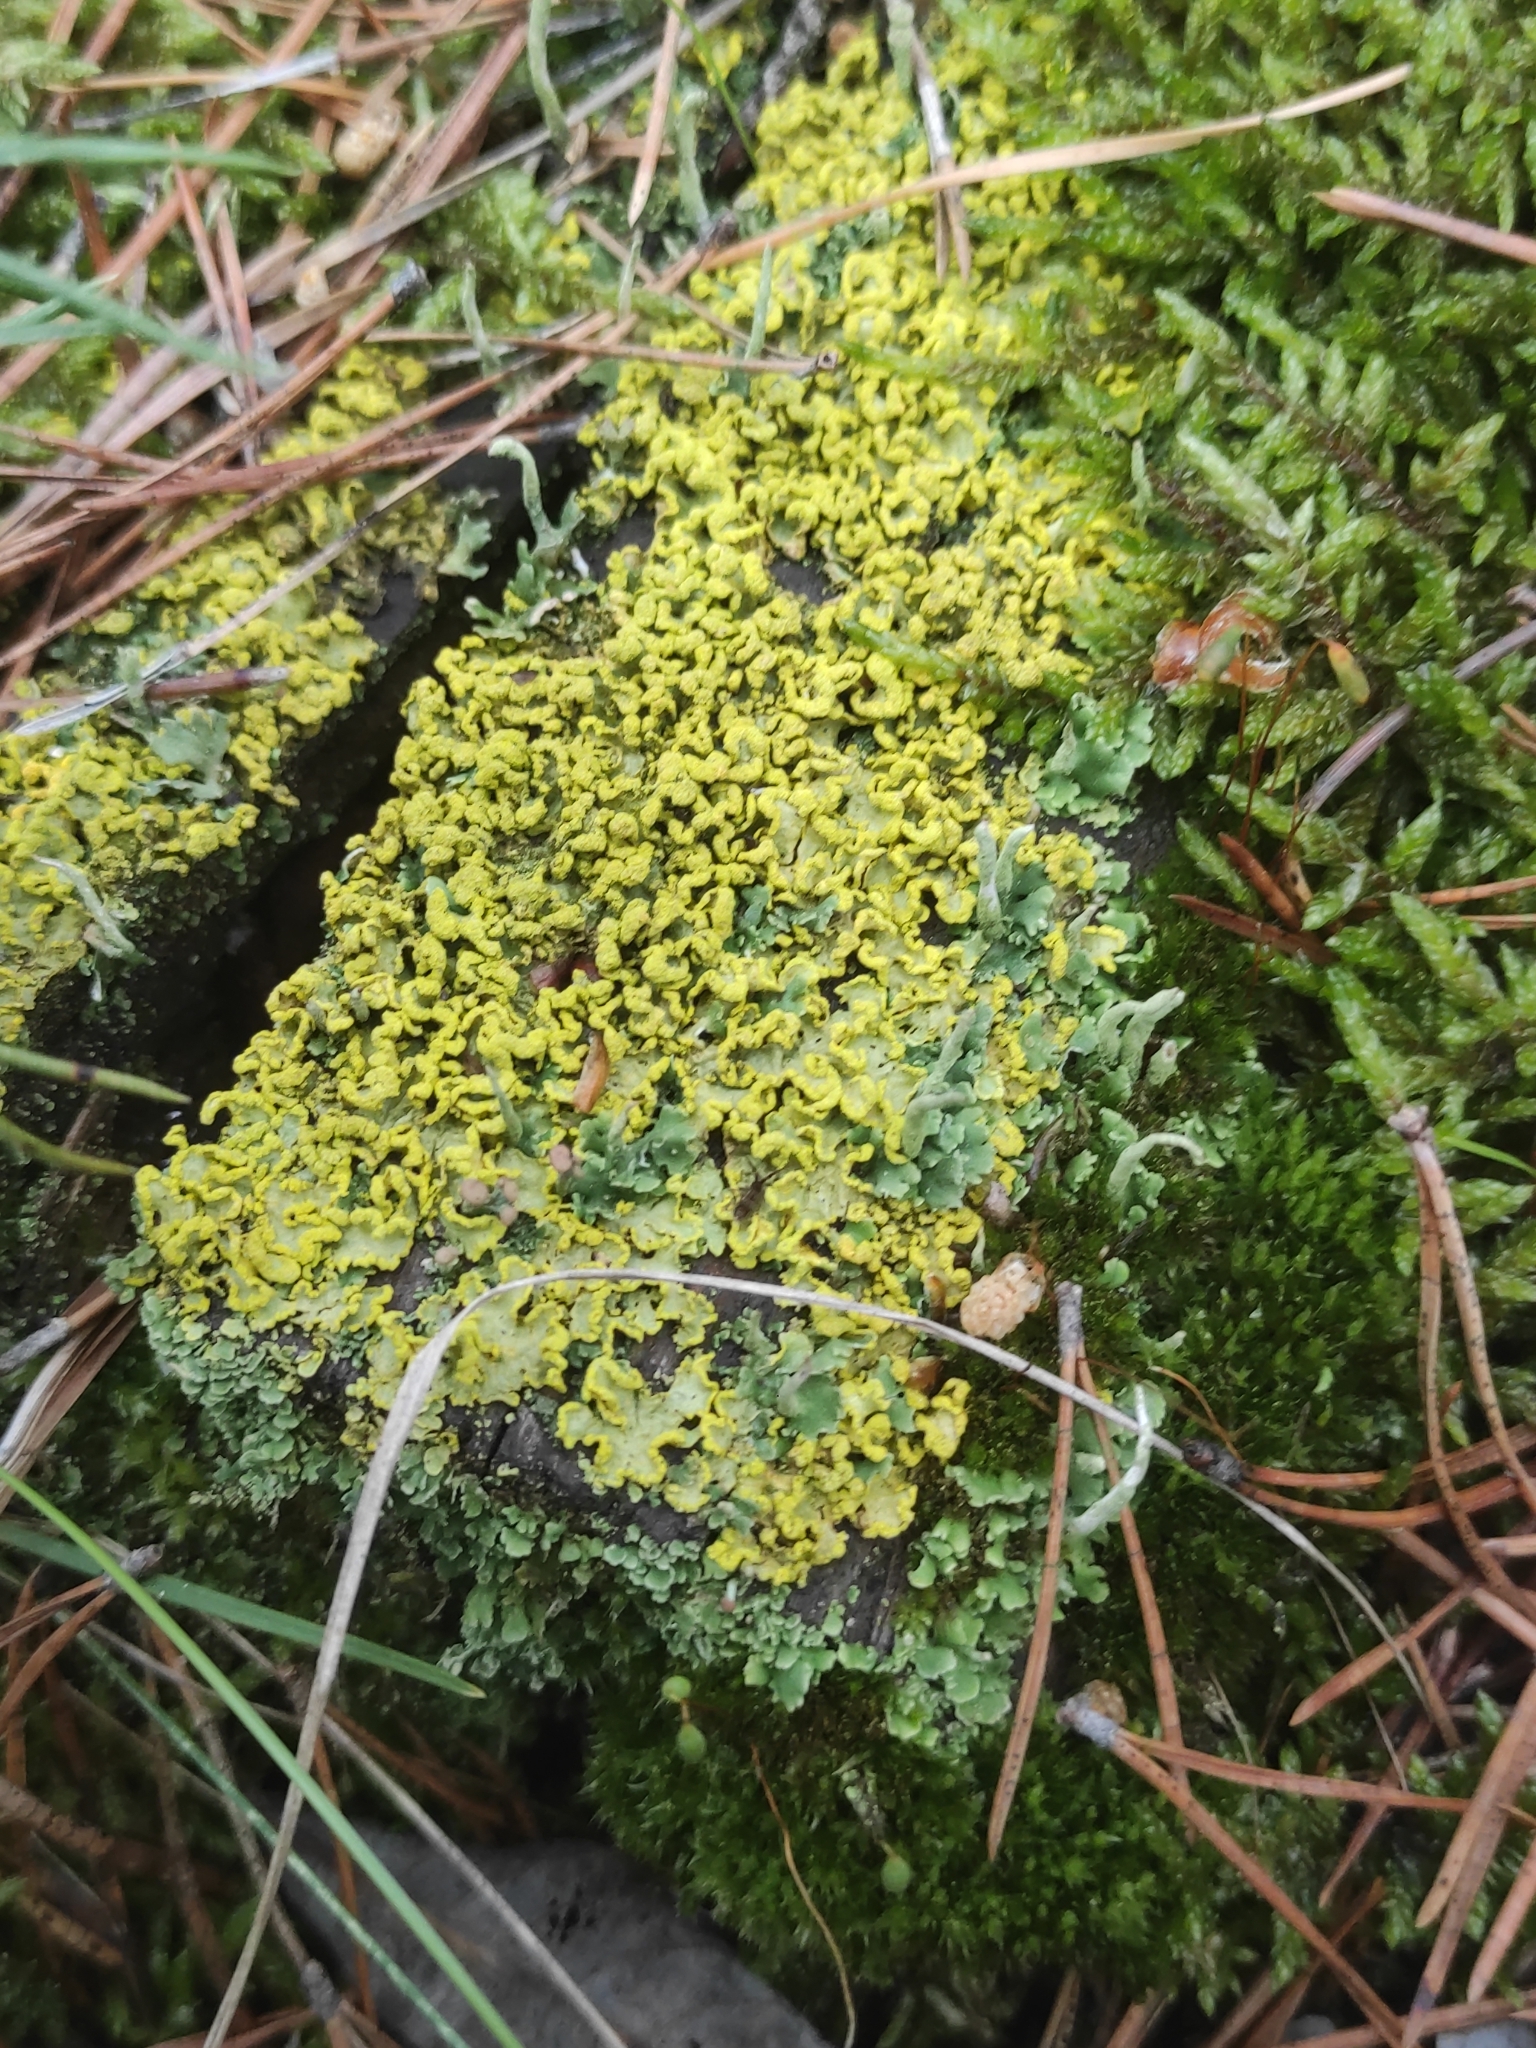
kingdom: Fungi
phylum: Ascomycota
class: Lecanoromycetes
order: Lecanorales
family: Parmeliaceae
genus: Vulpicida
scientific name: Vulpicida pinastri
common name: Powdered sunshine lichen
